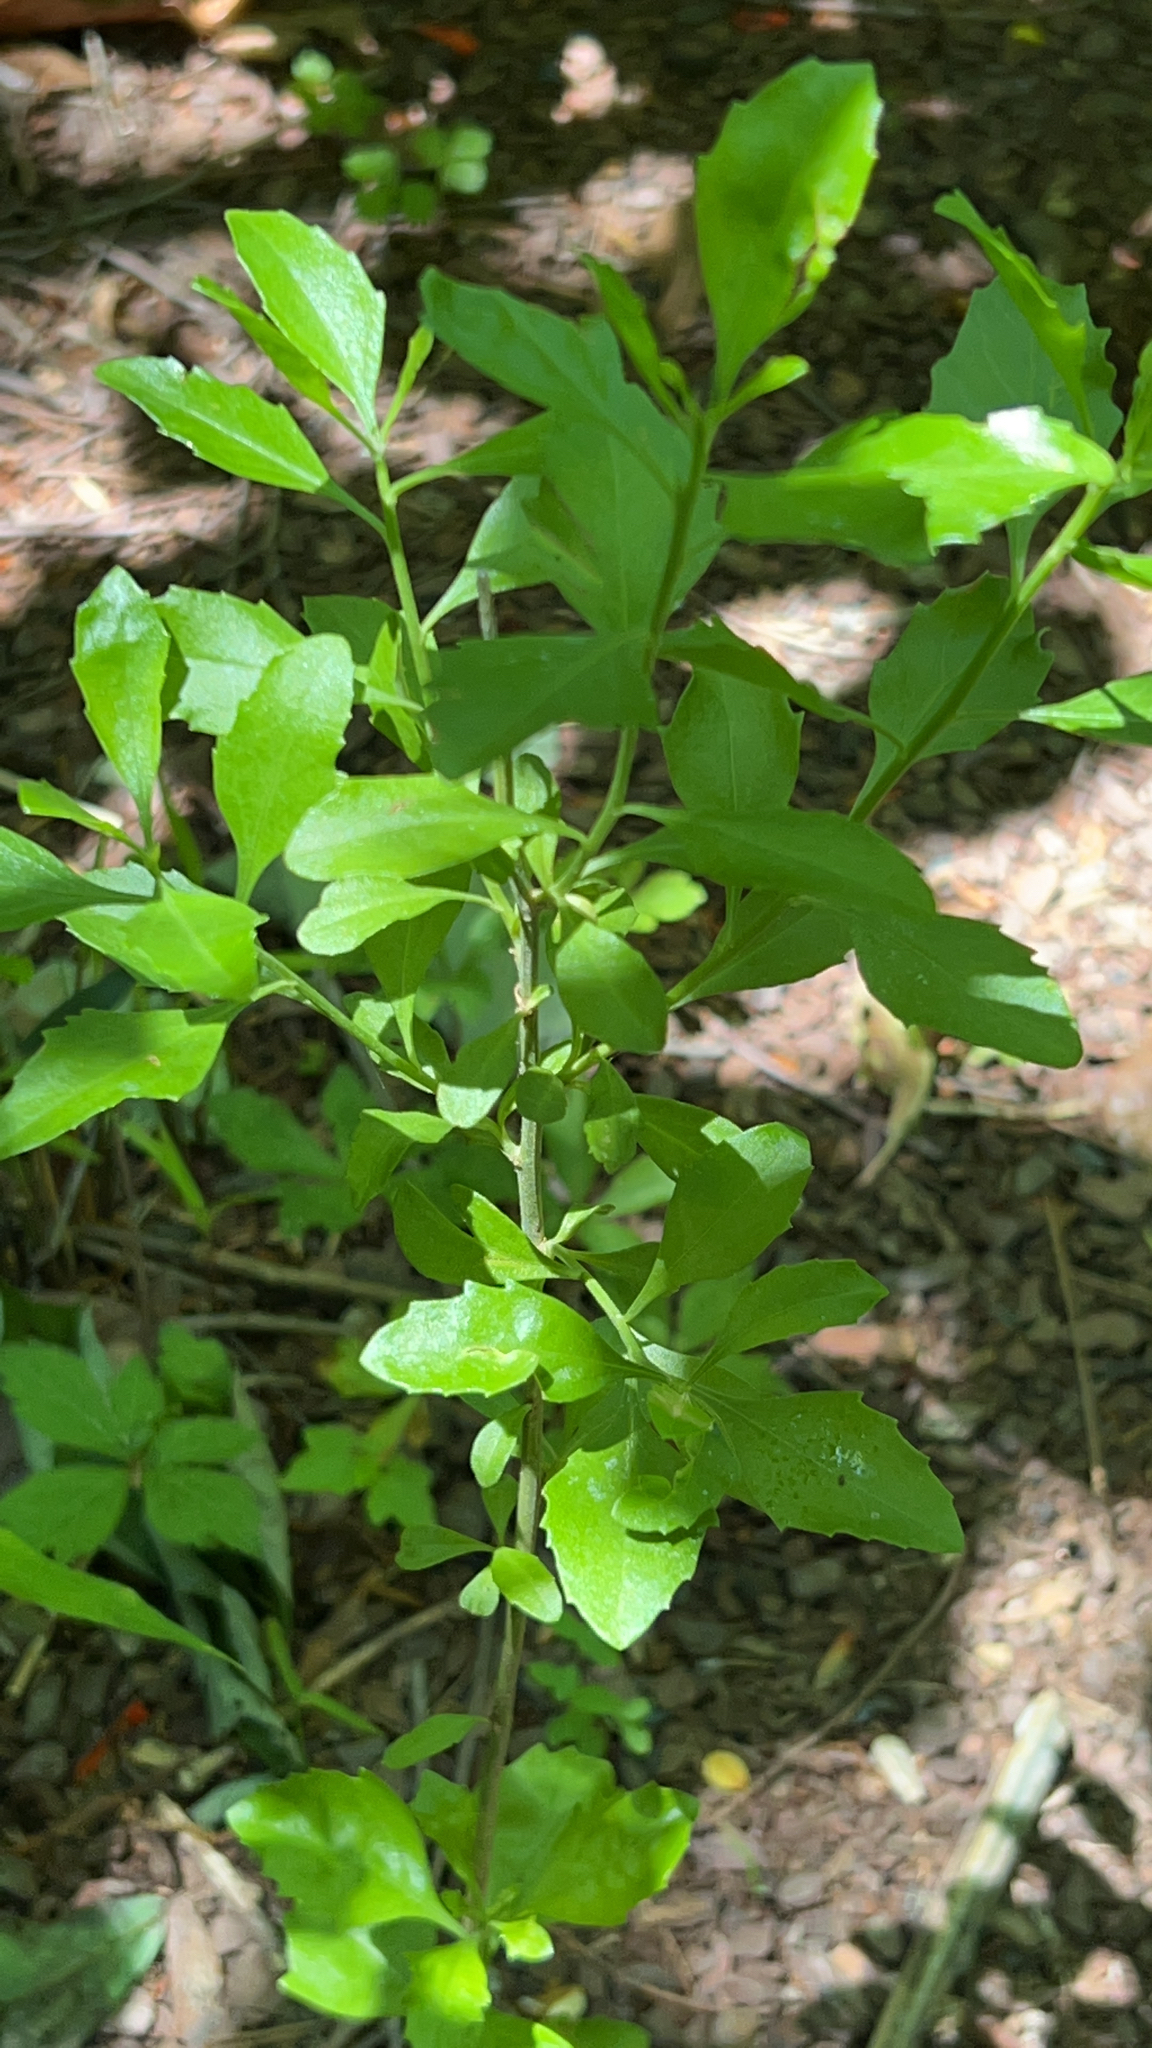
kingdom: Plantae
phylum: Tracheophyta
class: Magnoliopsida
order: Asterales
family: Asteraceae
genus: Baccharis
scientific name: Baccharis halimifolia
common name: Eastern baccharis
